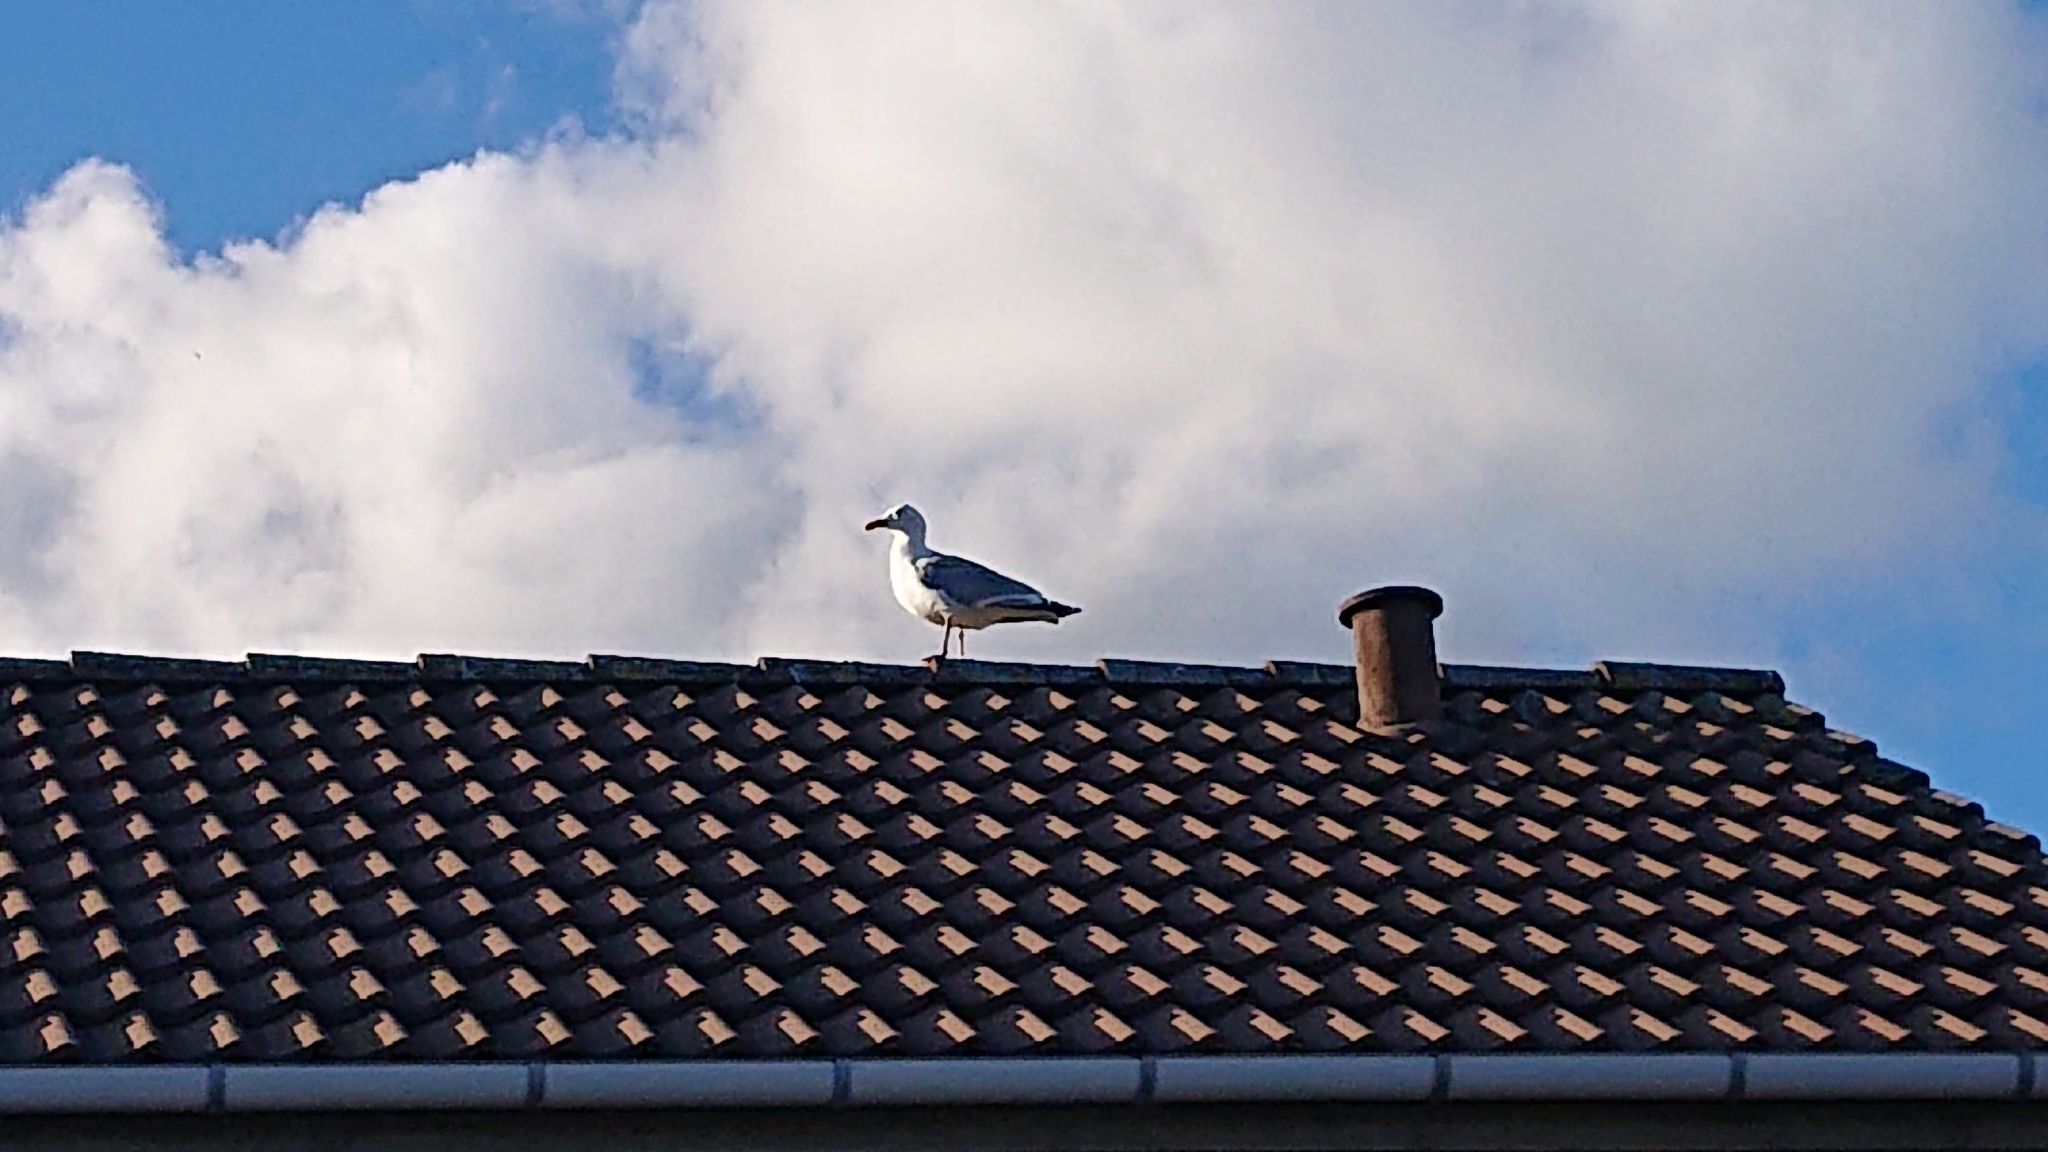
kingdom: Animalia
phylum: Chordata
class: Aves
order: Charadriiformes
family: Laridae
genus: Larus
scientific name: Larus argentatus
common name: Herring gull
